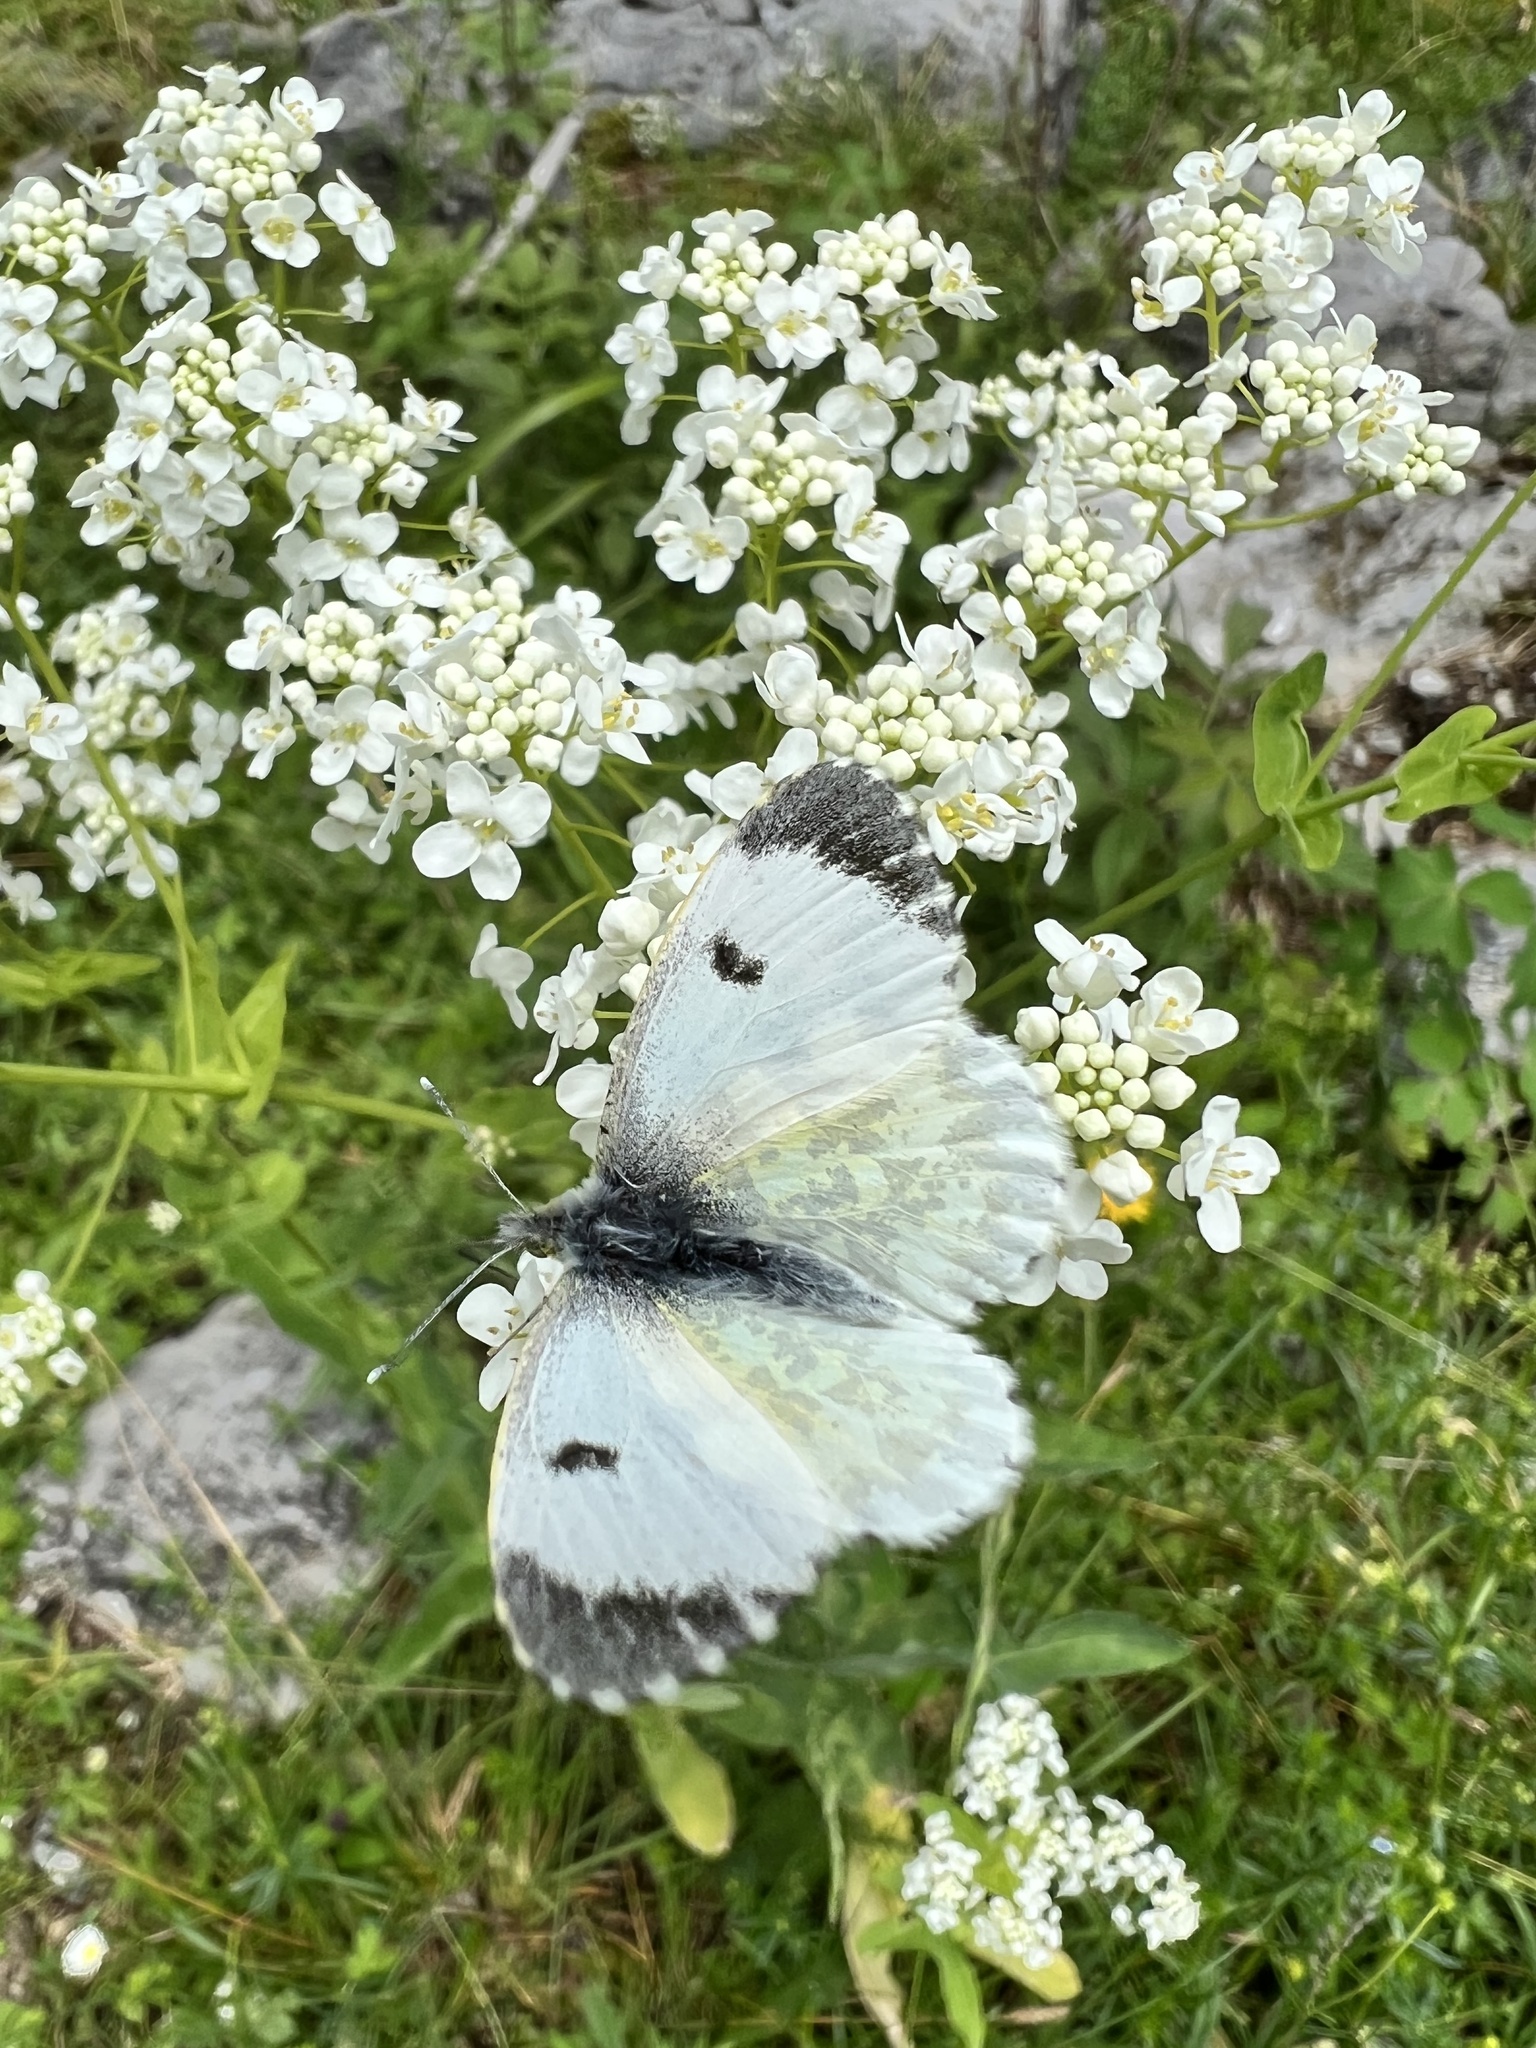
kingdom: Animalia
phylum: Arthropoda
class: Insecta
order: Lepidoptera
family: Pieridae
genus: Anthocharis
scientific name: Anthocharis cardamines
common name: Orange-tip
